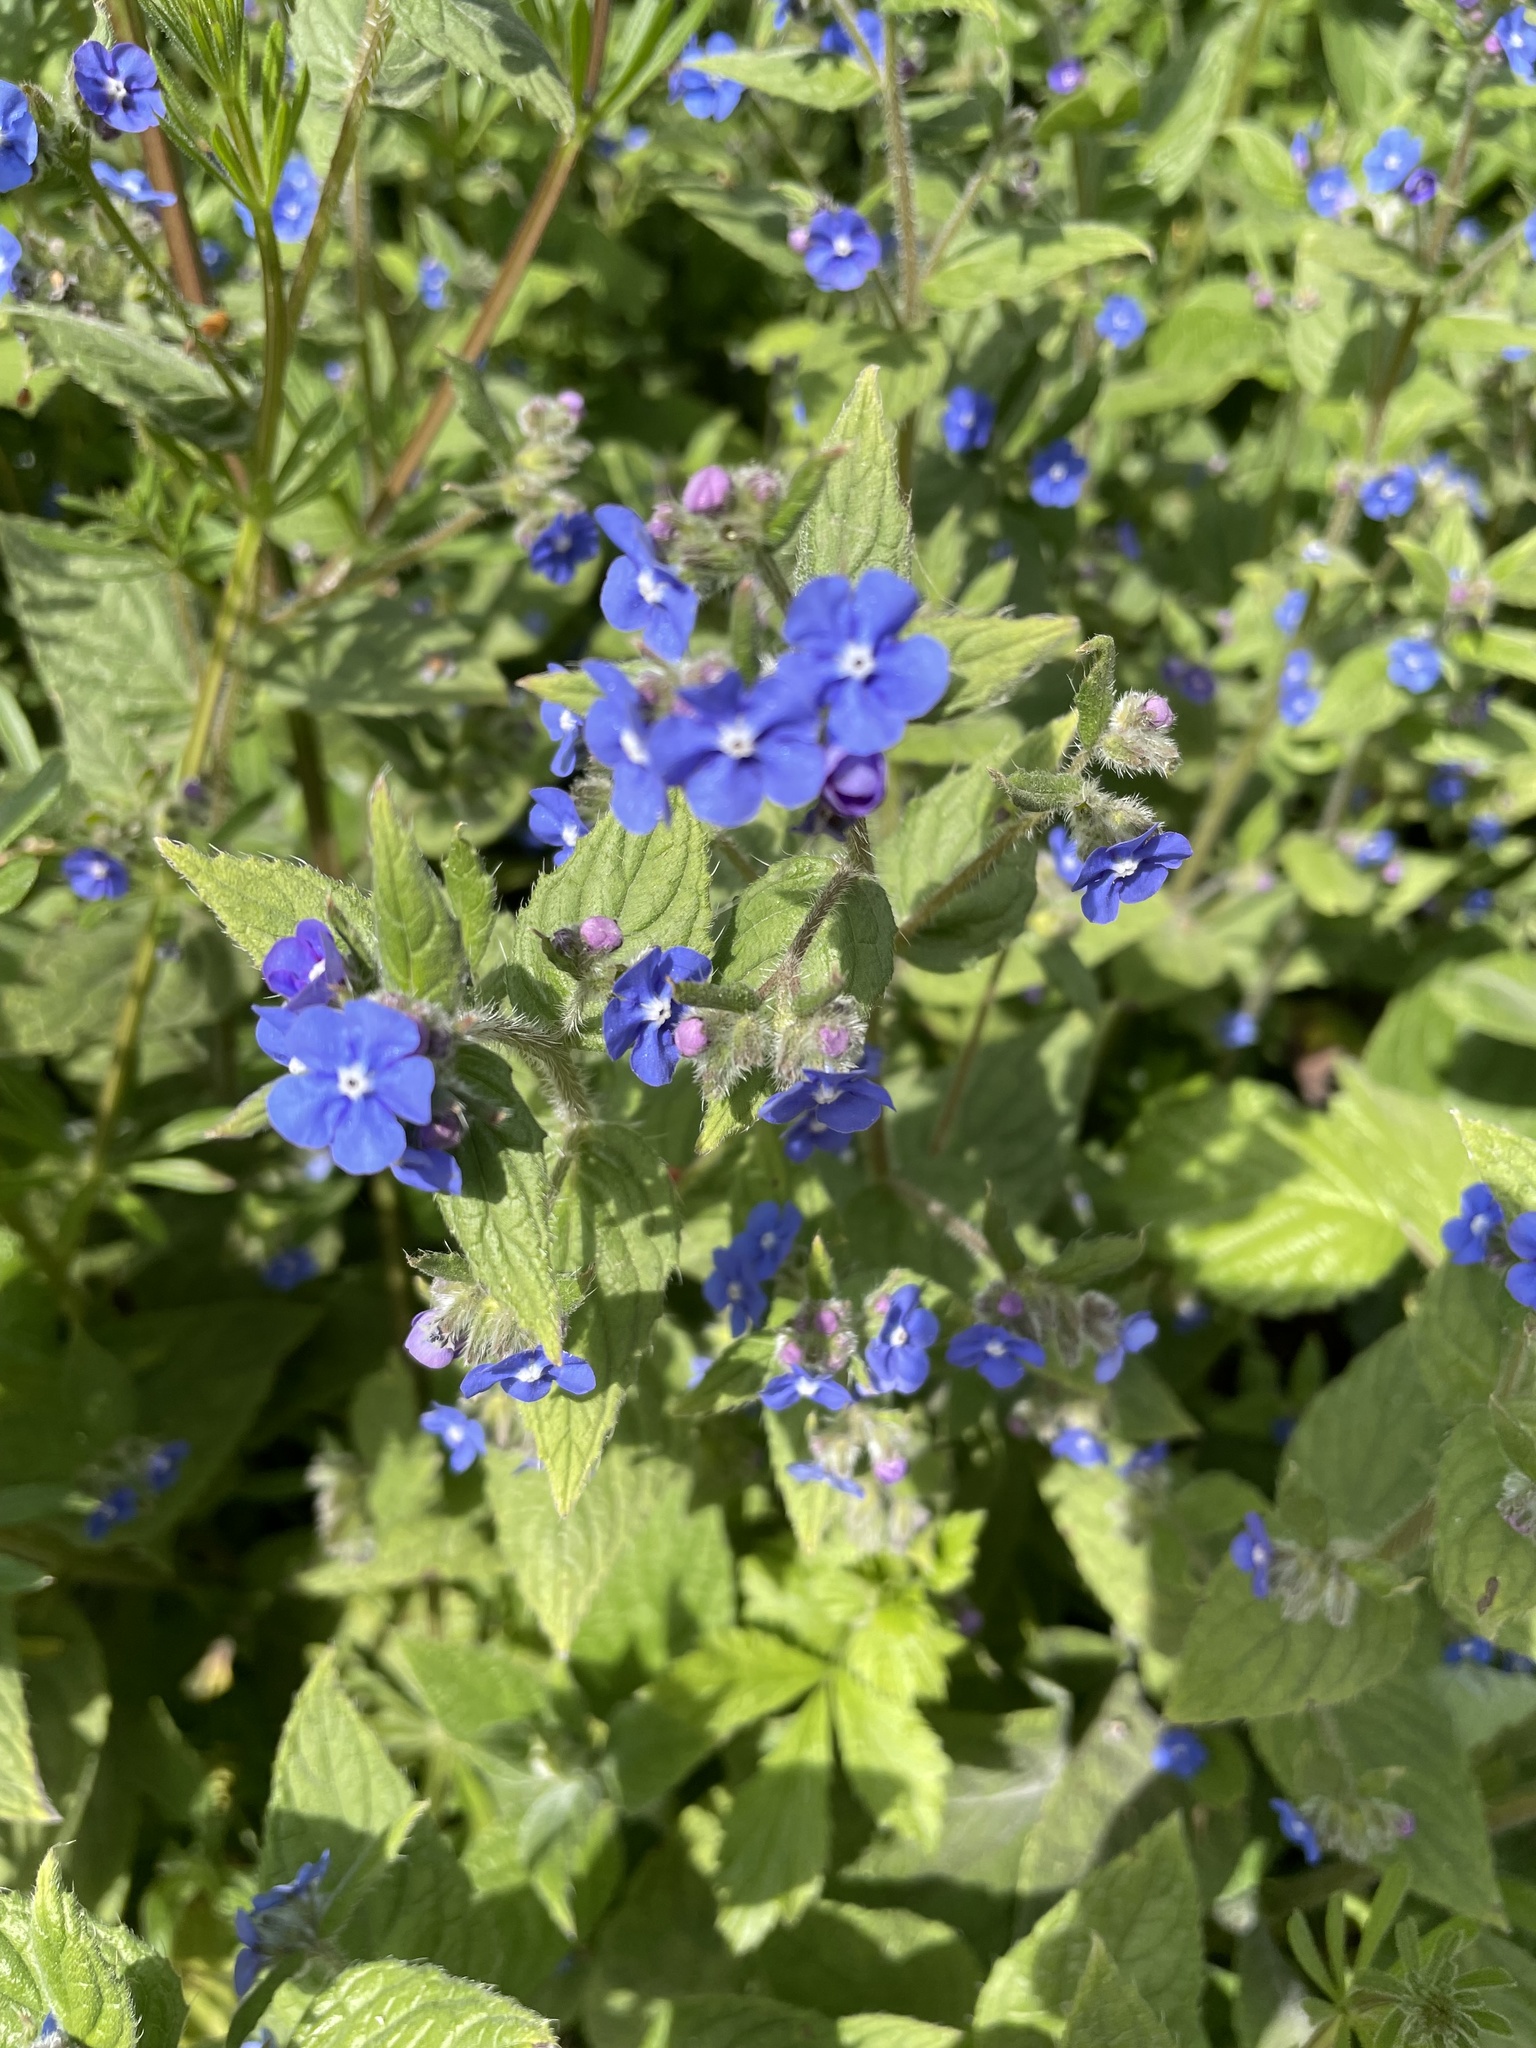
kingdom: Plantae
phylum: Tracheophyta
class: Magnoliopsida
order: Boraginales
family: Boraginaceae
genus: Pentaglottis
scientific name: Pentaglottis sempervirens
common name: Green alkanet
